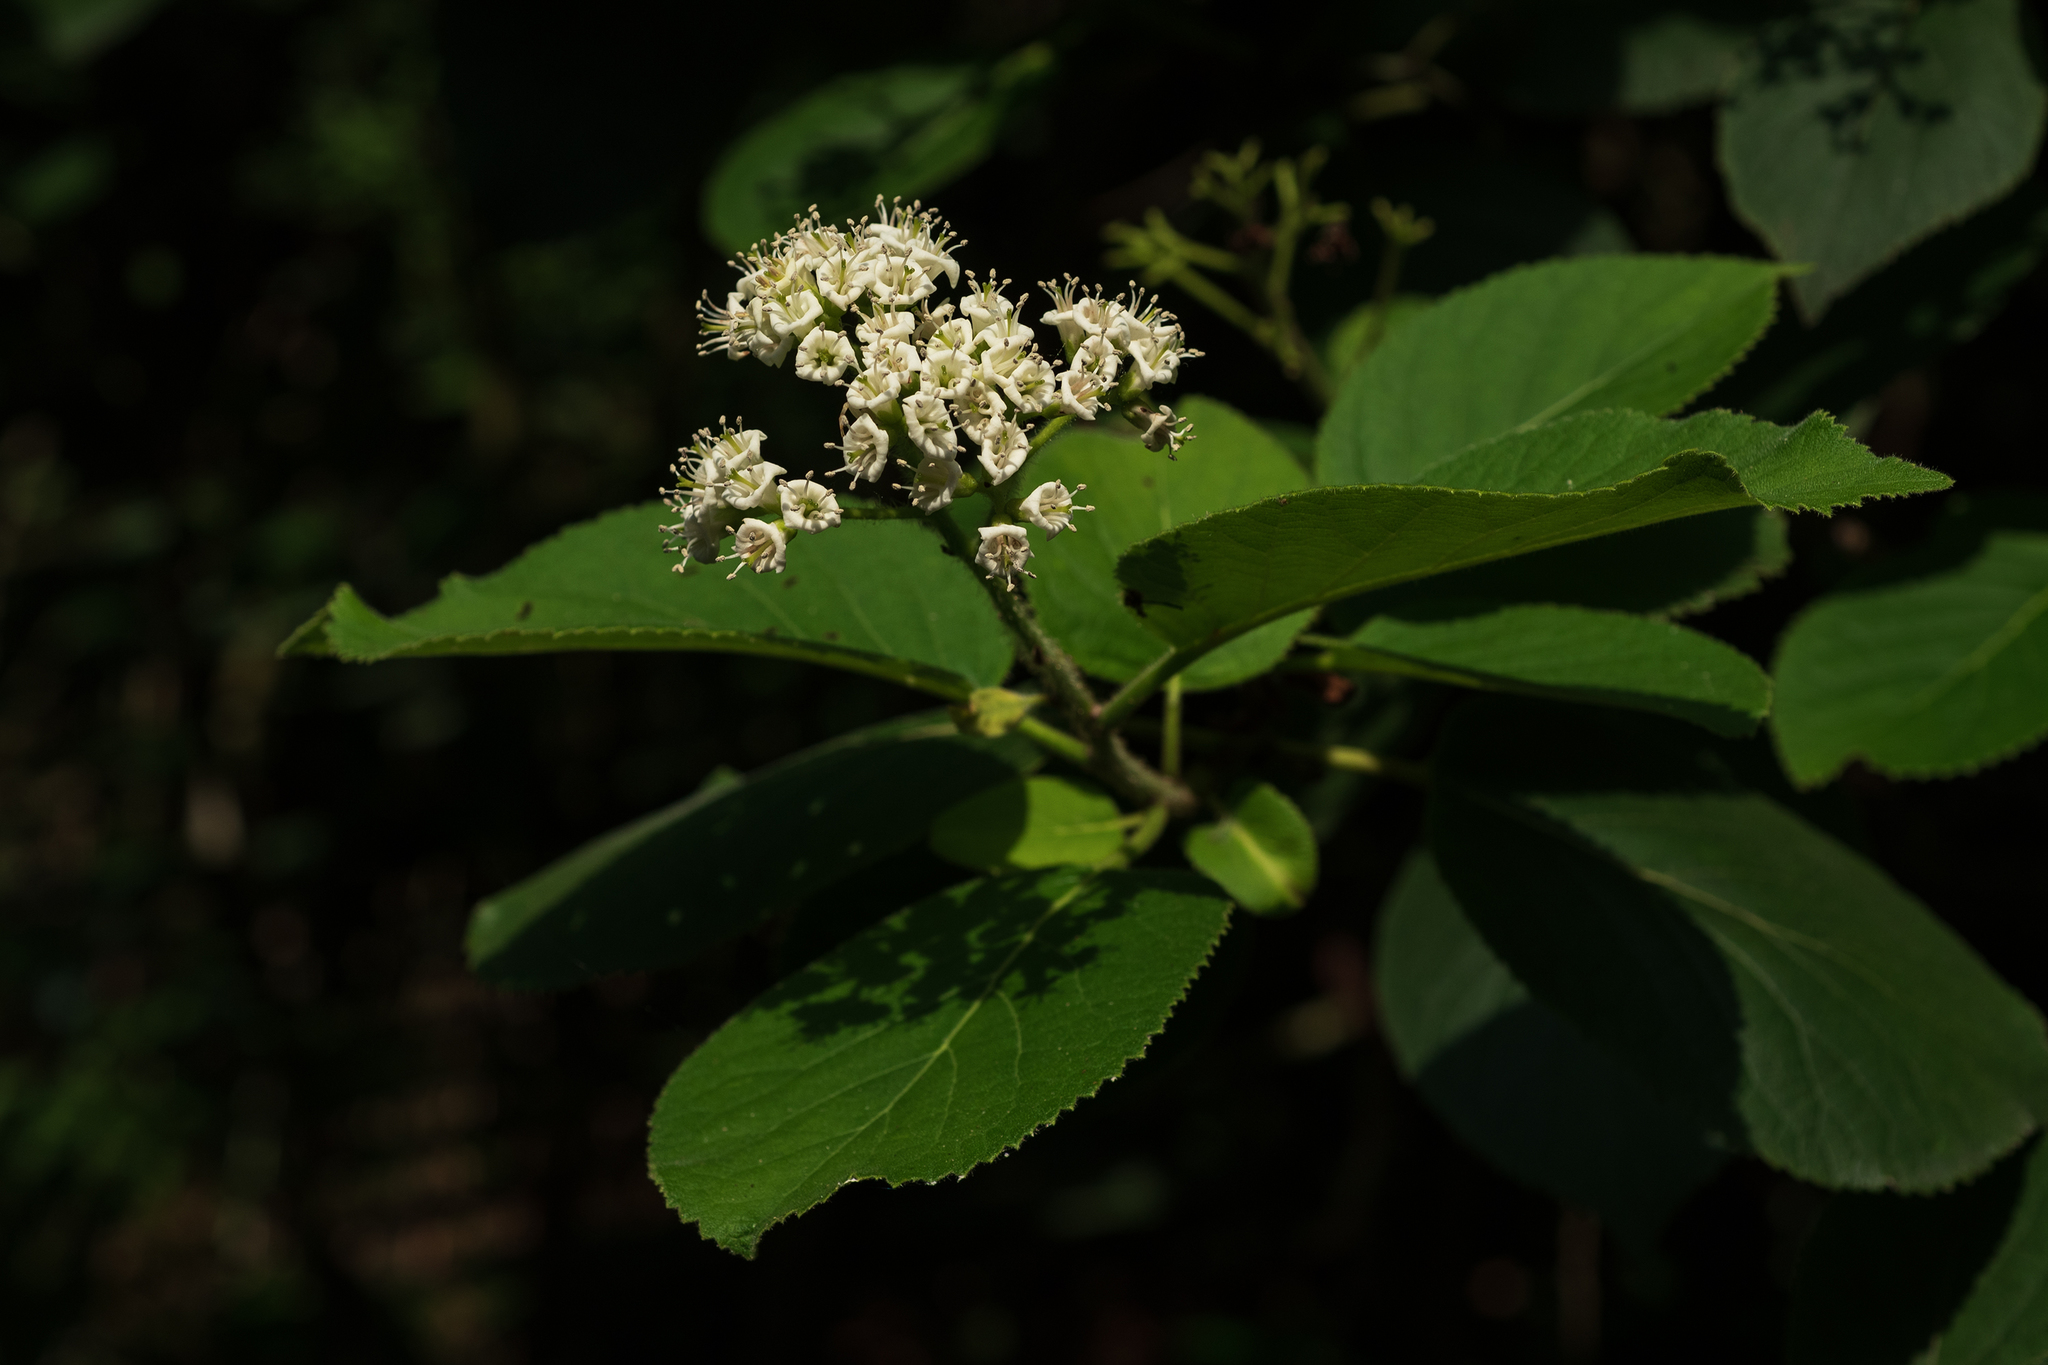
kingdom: Plantae
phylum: Tracheophyta
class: Magnoliopsida
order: Boraginales
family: Ehretiaceae
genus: Ehretia
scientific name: Ehretia dicksonii
